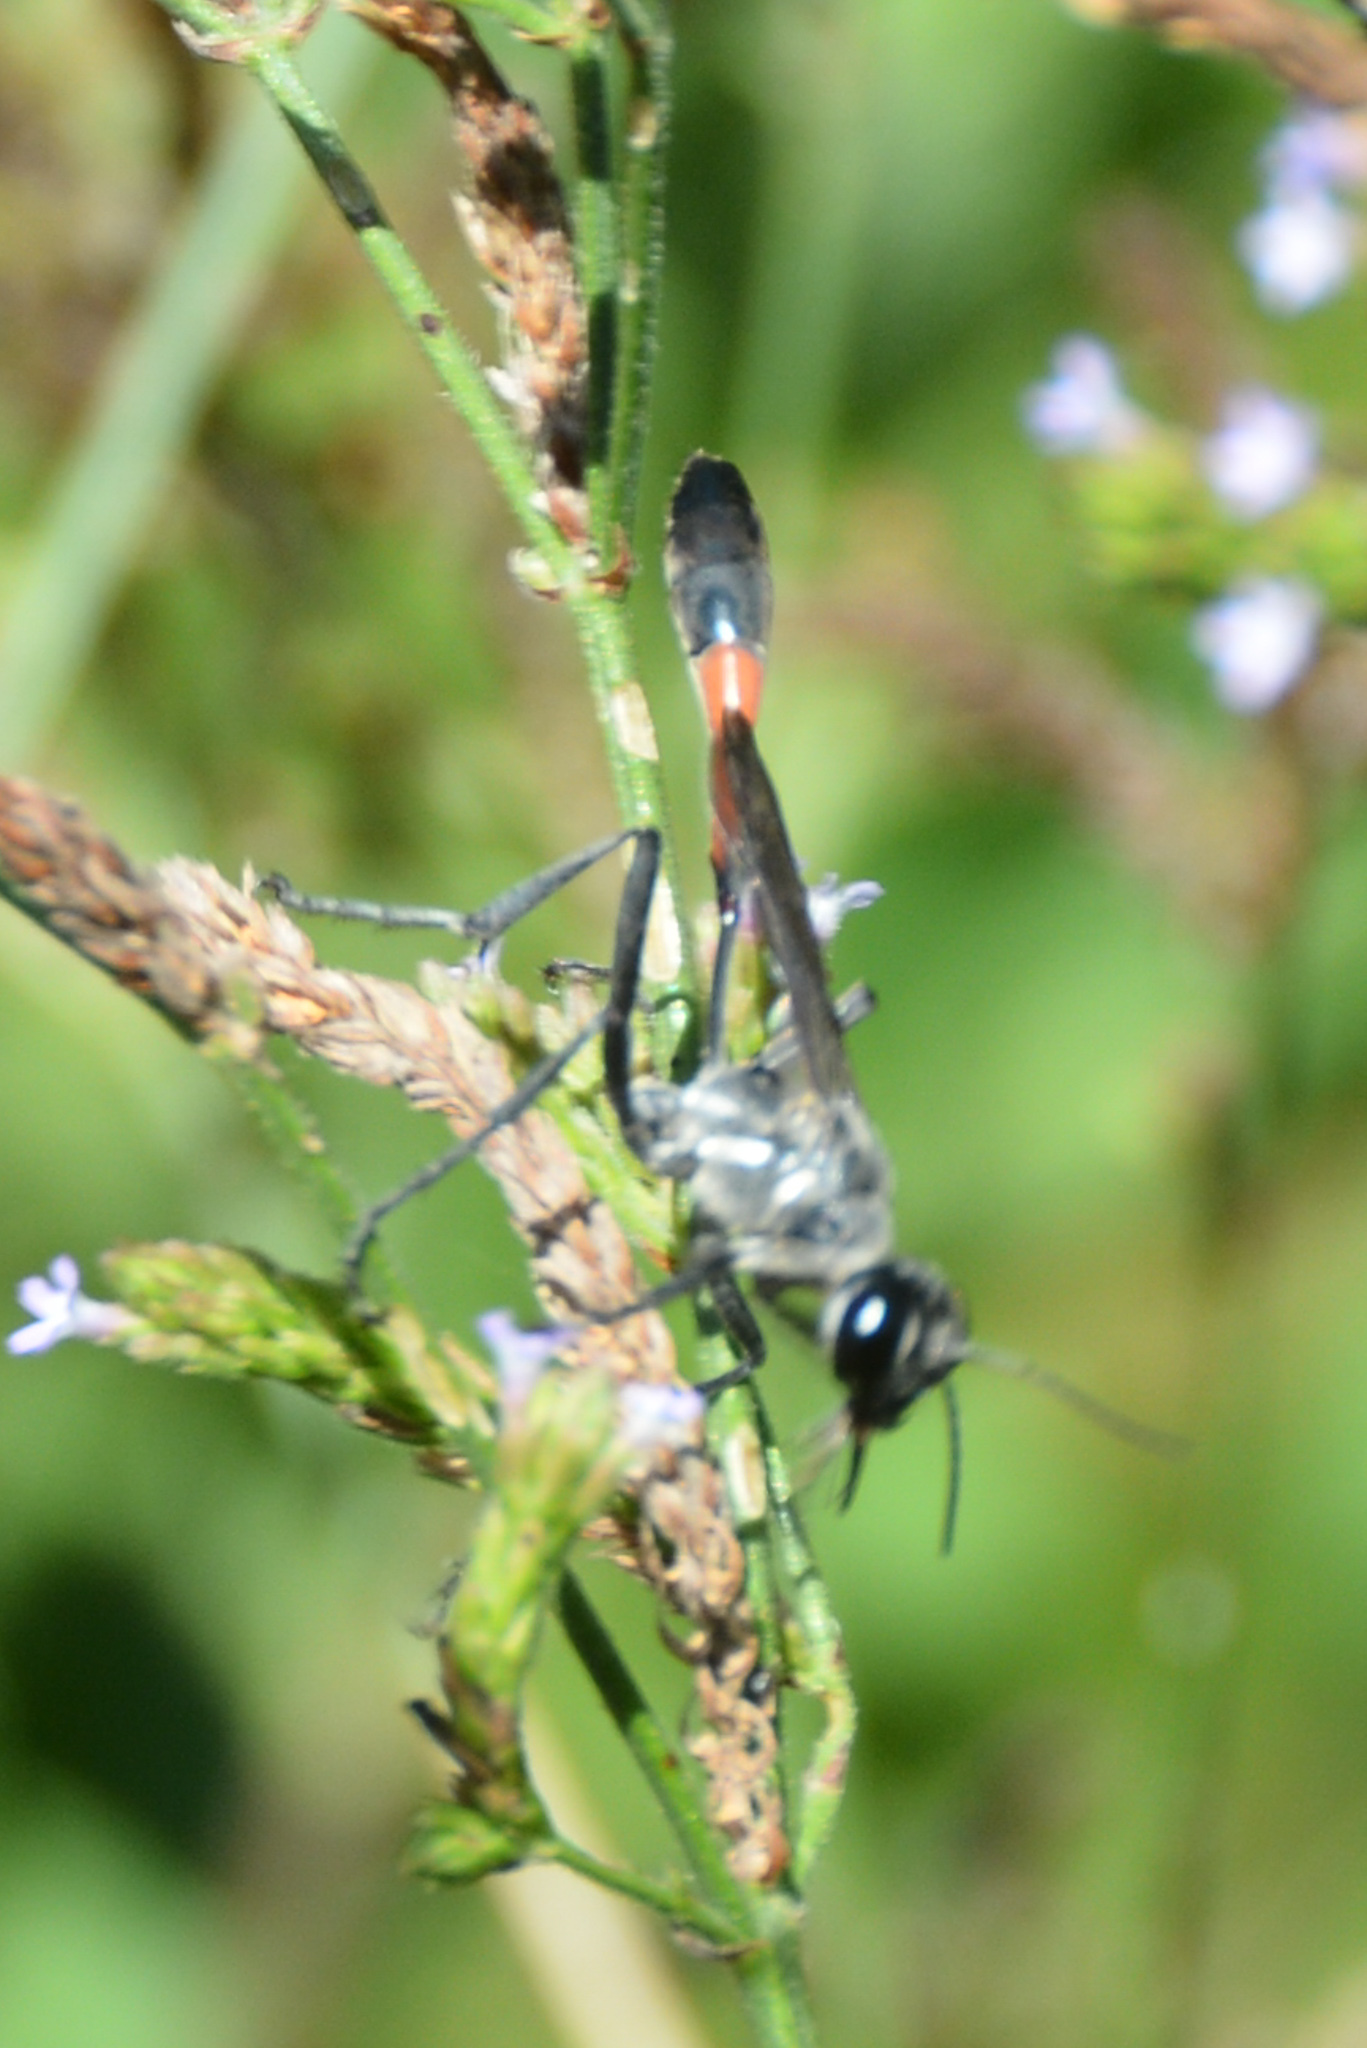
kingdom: Animalia
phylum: Arthropoda
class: Insecta
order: Hymenoptera
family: Sphecidae
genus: Ammophila
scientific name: Ammophila procera
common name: Common thread-waisted wasp
